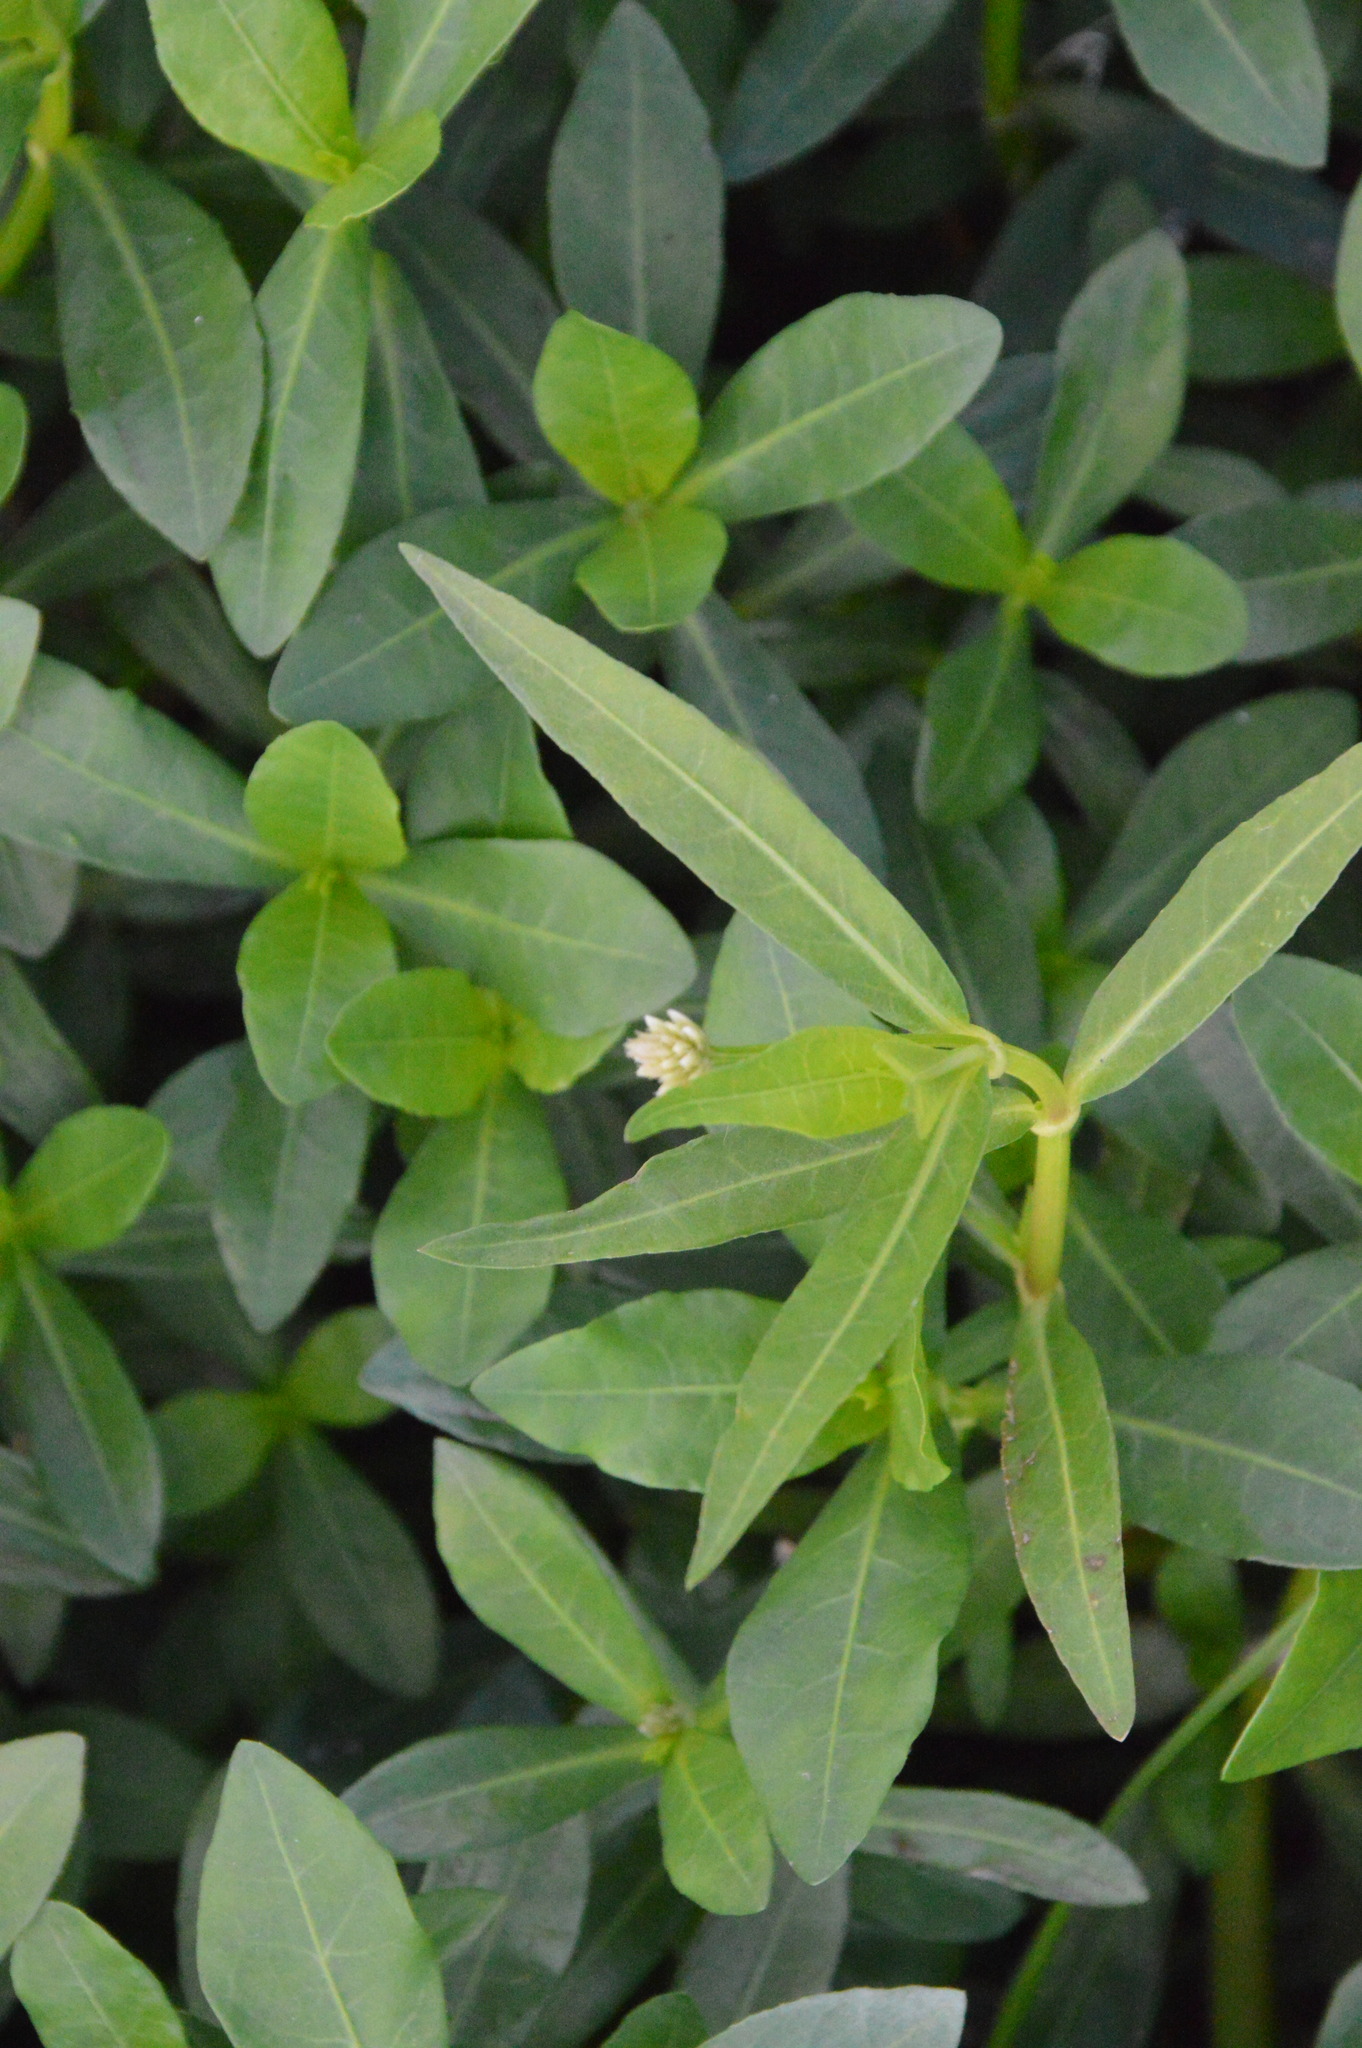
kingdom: Plantae
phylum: Tracheophyta
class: Magnoliopsida
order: Caryophyllales
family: Amaranthaceae
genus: Alternanthera
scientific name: Alternanthera philoxeroides
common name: Alligatorweed
